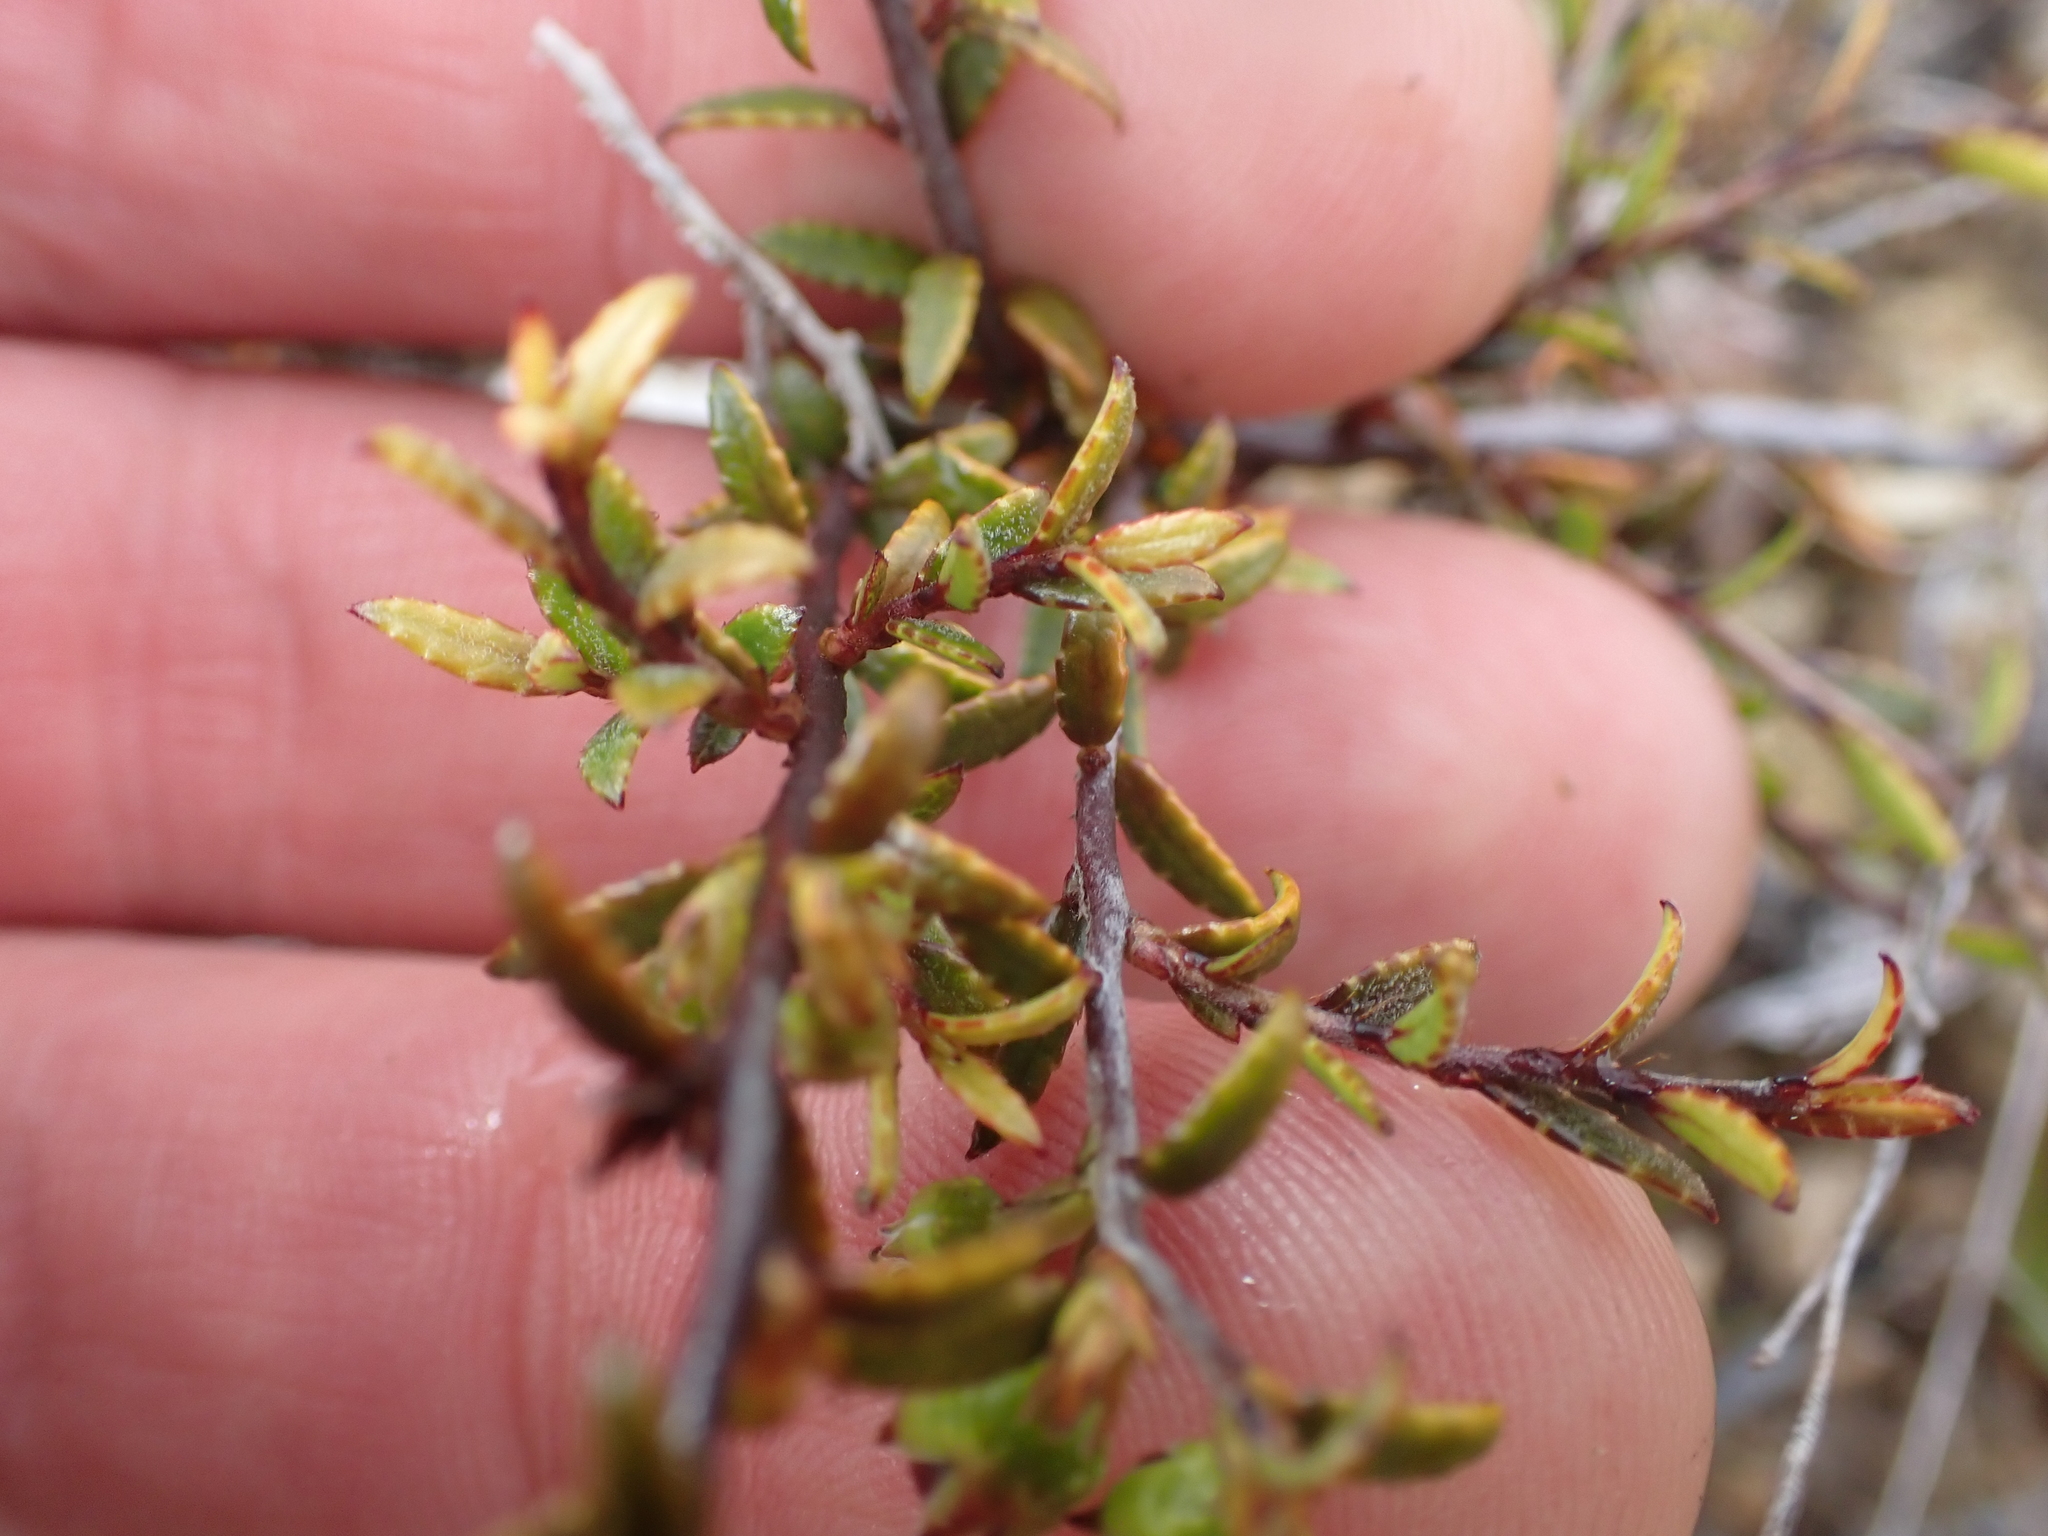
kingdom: Plantae
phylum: Tracheophyta
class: Magnoliopsida
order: Ericales
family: Ericaceae
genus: Gaultheria
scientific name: Gaultheria macrostigma
